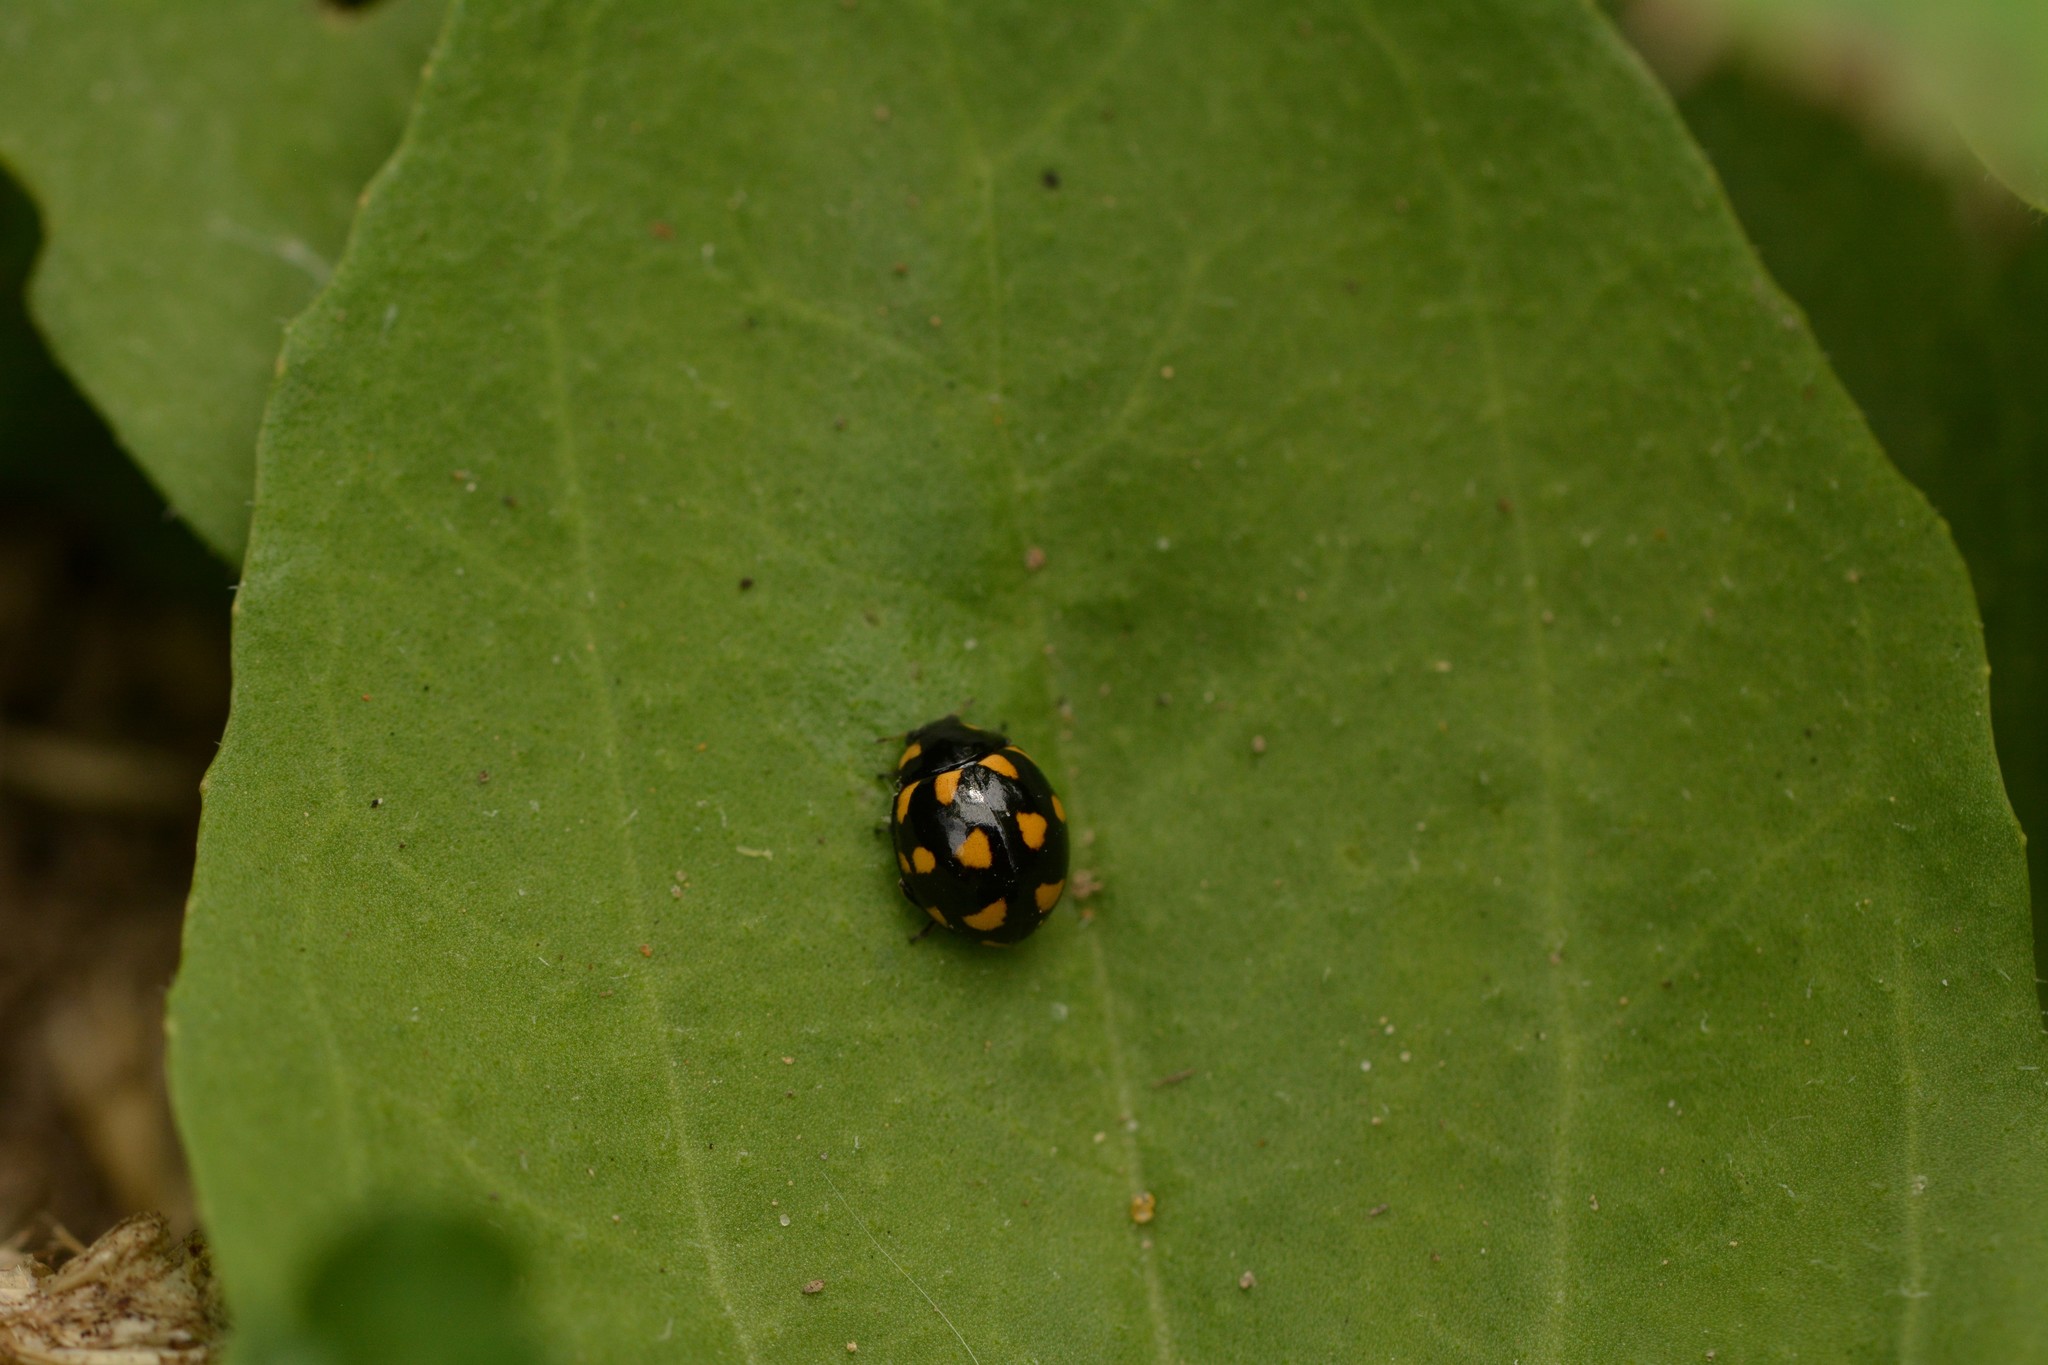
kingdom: Animalia
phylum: Arthropoda
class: Insecta
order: Coleoptera
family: Coccinellidae
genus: Coccinella
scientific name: Coccinella leonina
